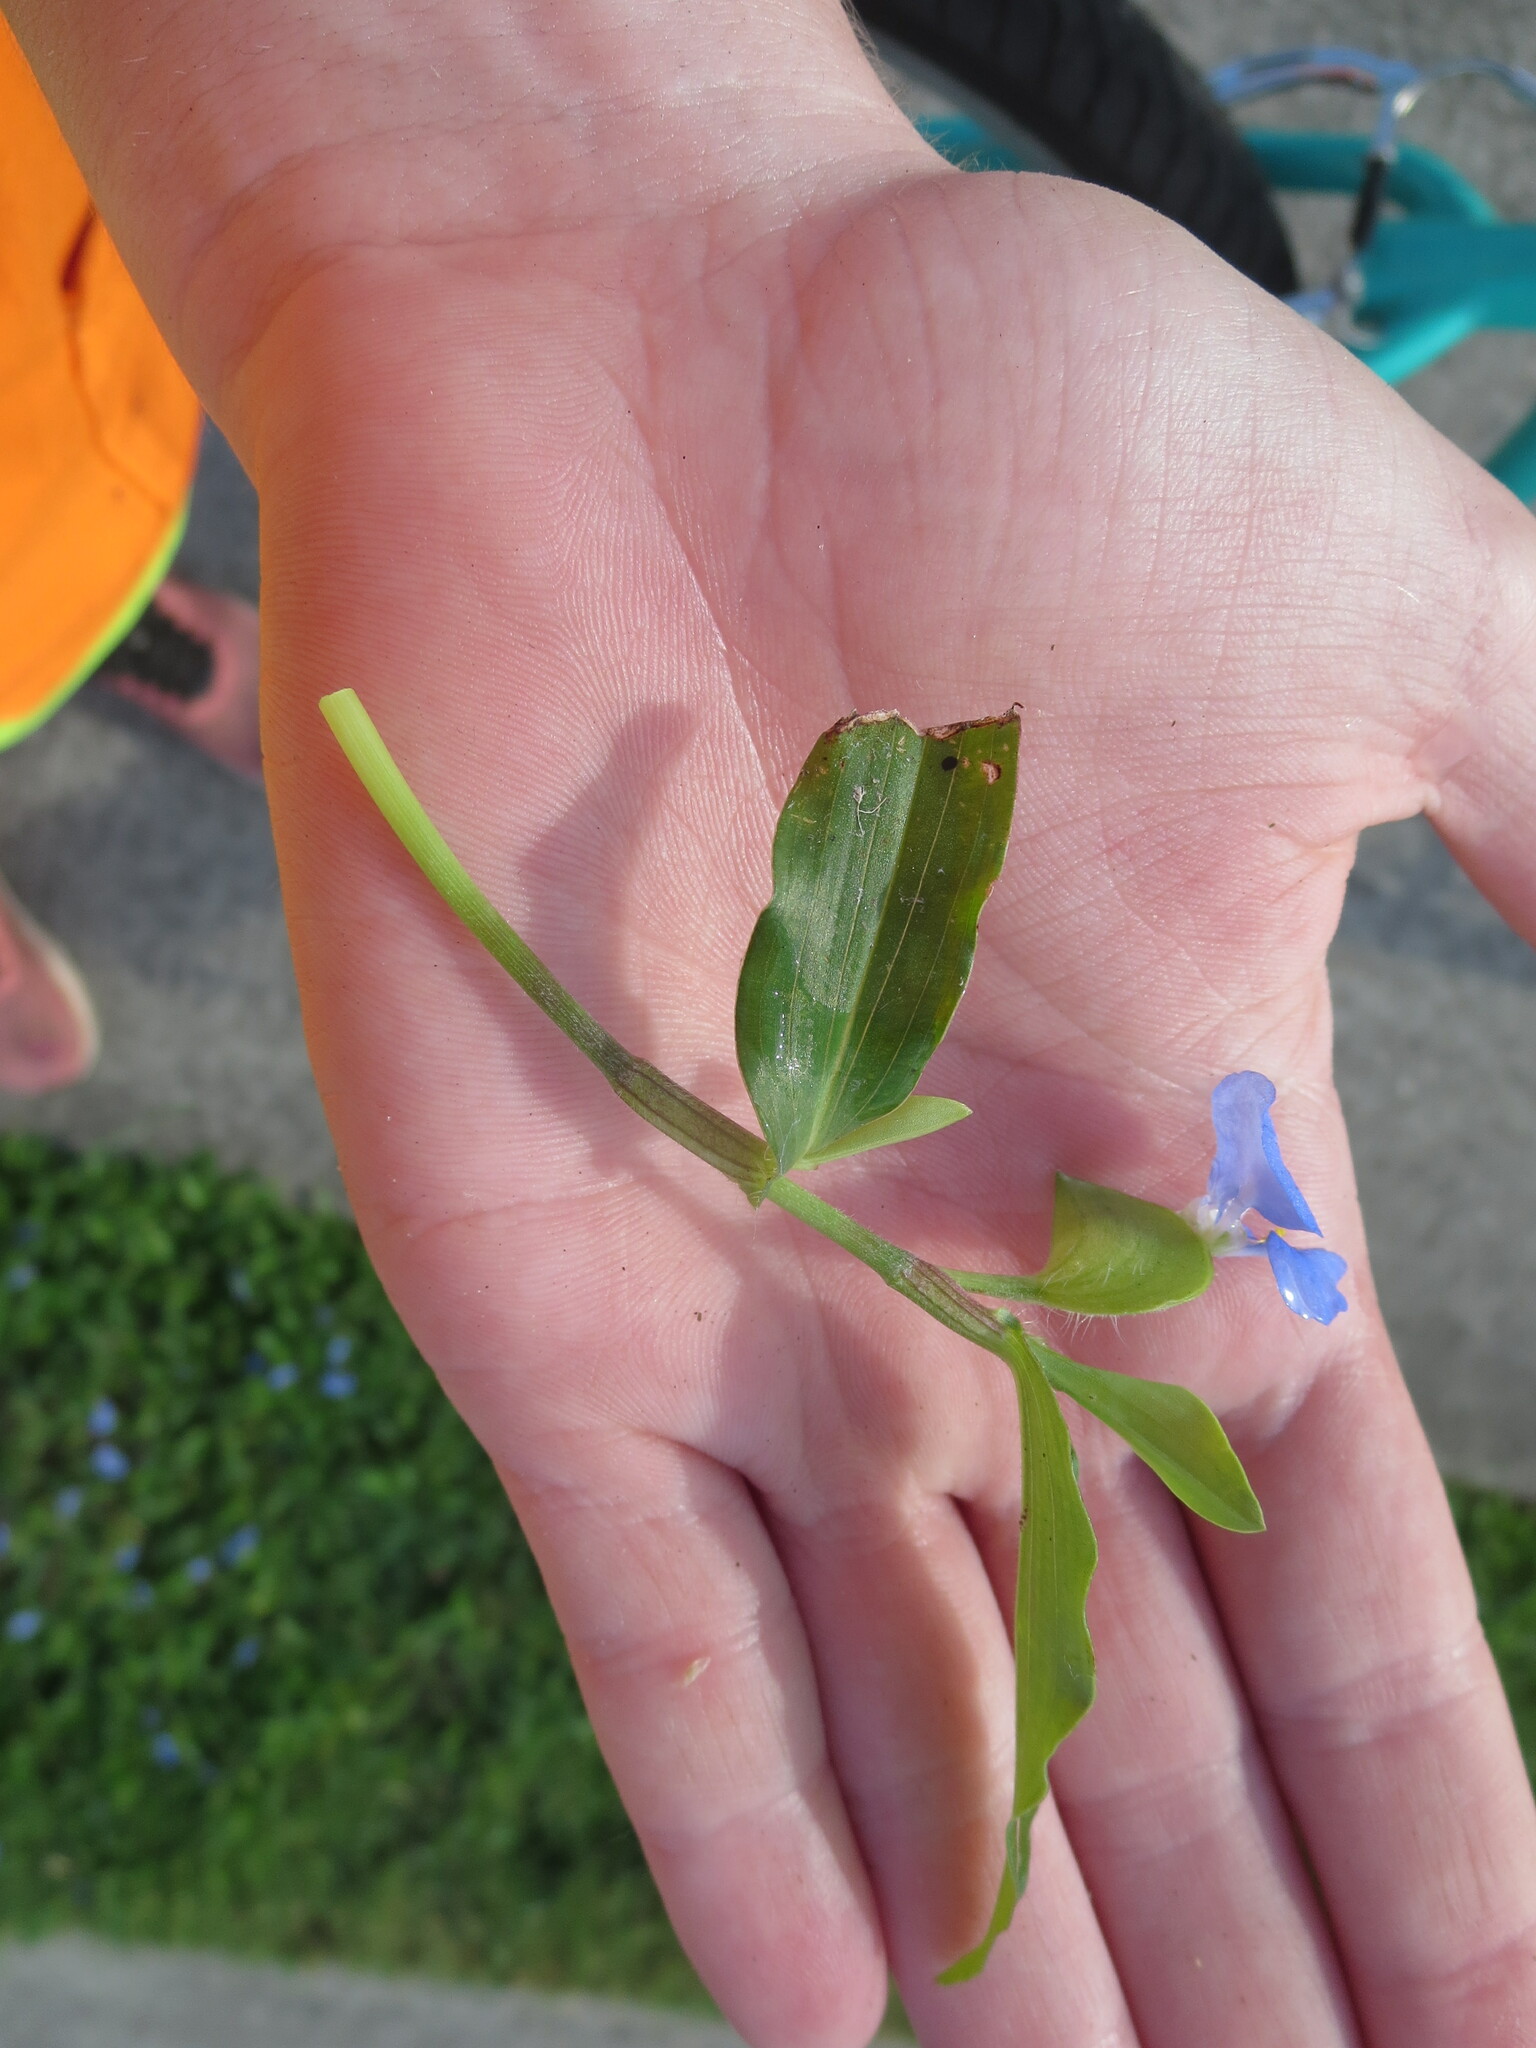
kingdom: Plantae
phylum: Tracheophyta
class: Liliopsida
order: Commelinales
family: Commelinaceae
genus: Commelina
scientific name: Commelina erecta
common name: Blousel blommetjie
